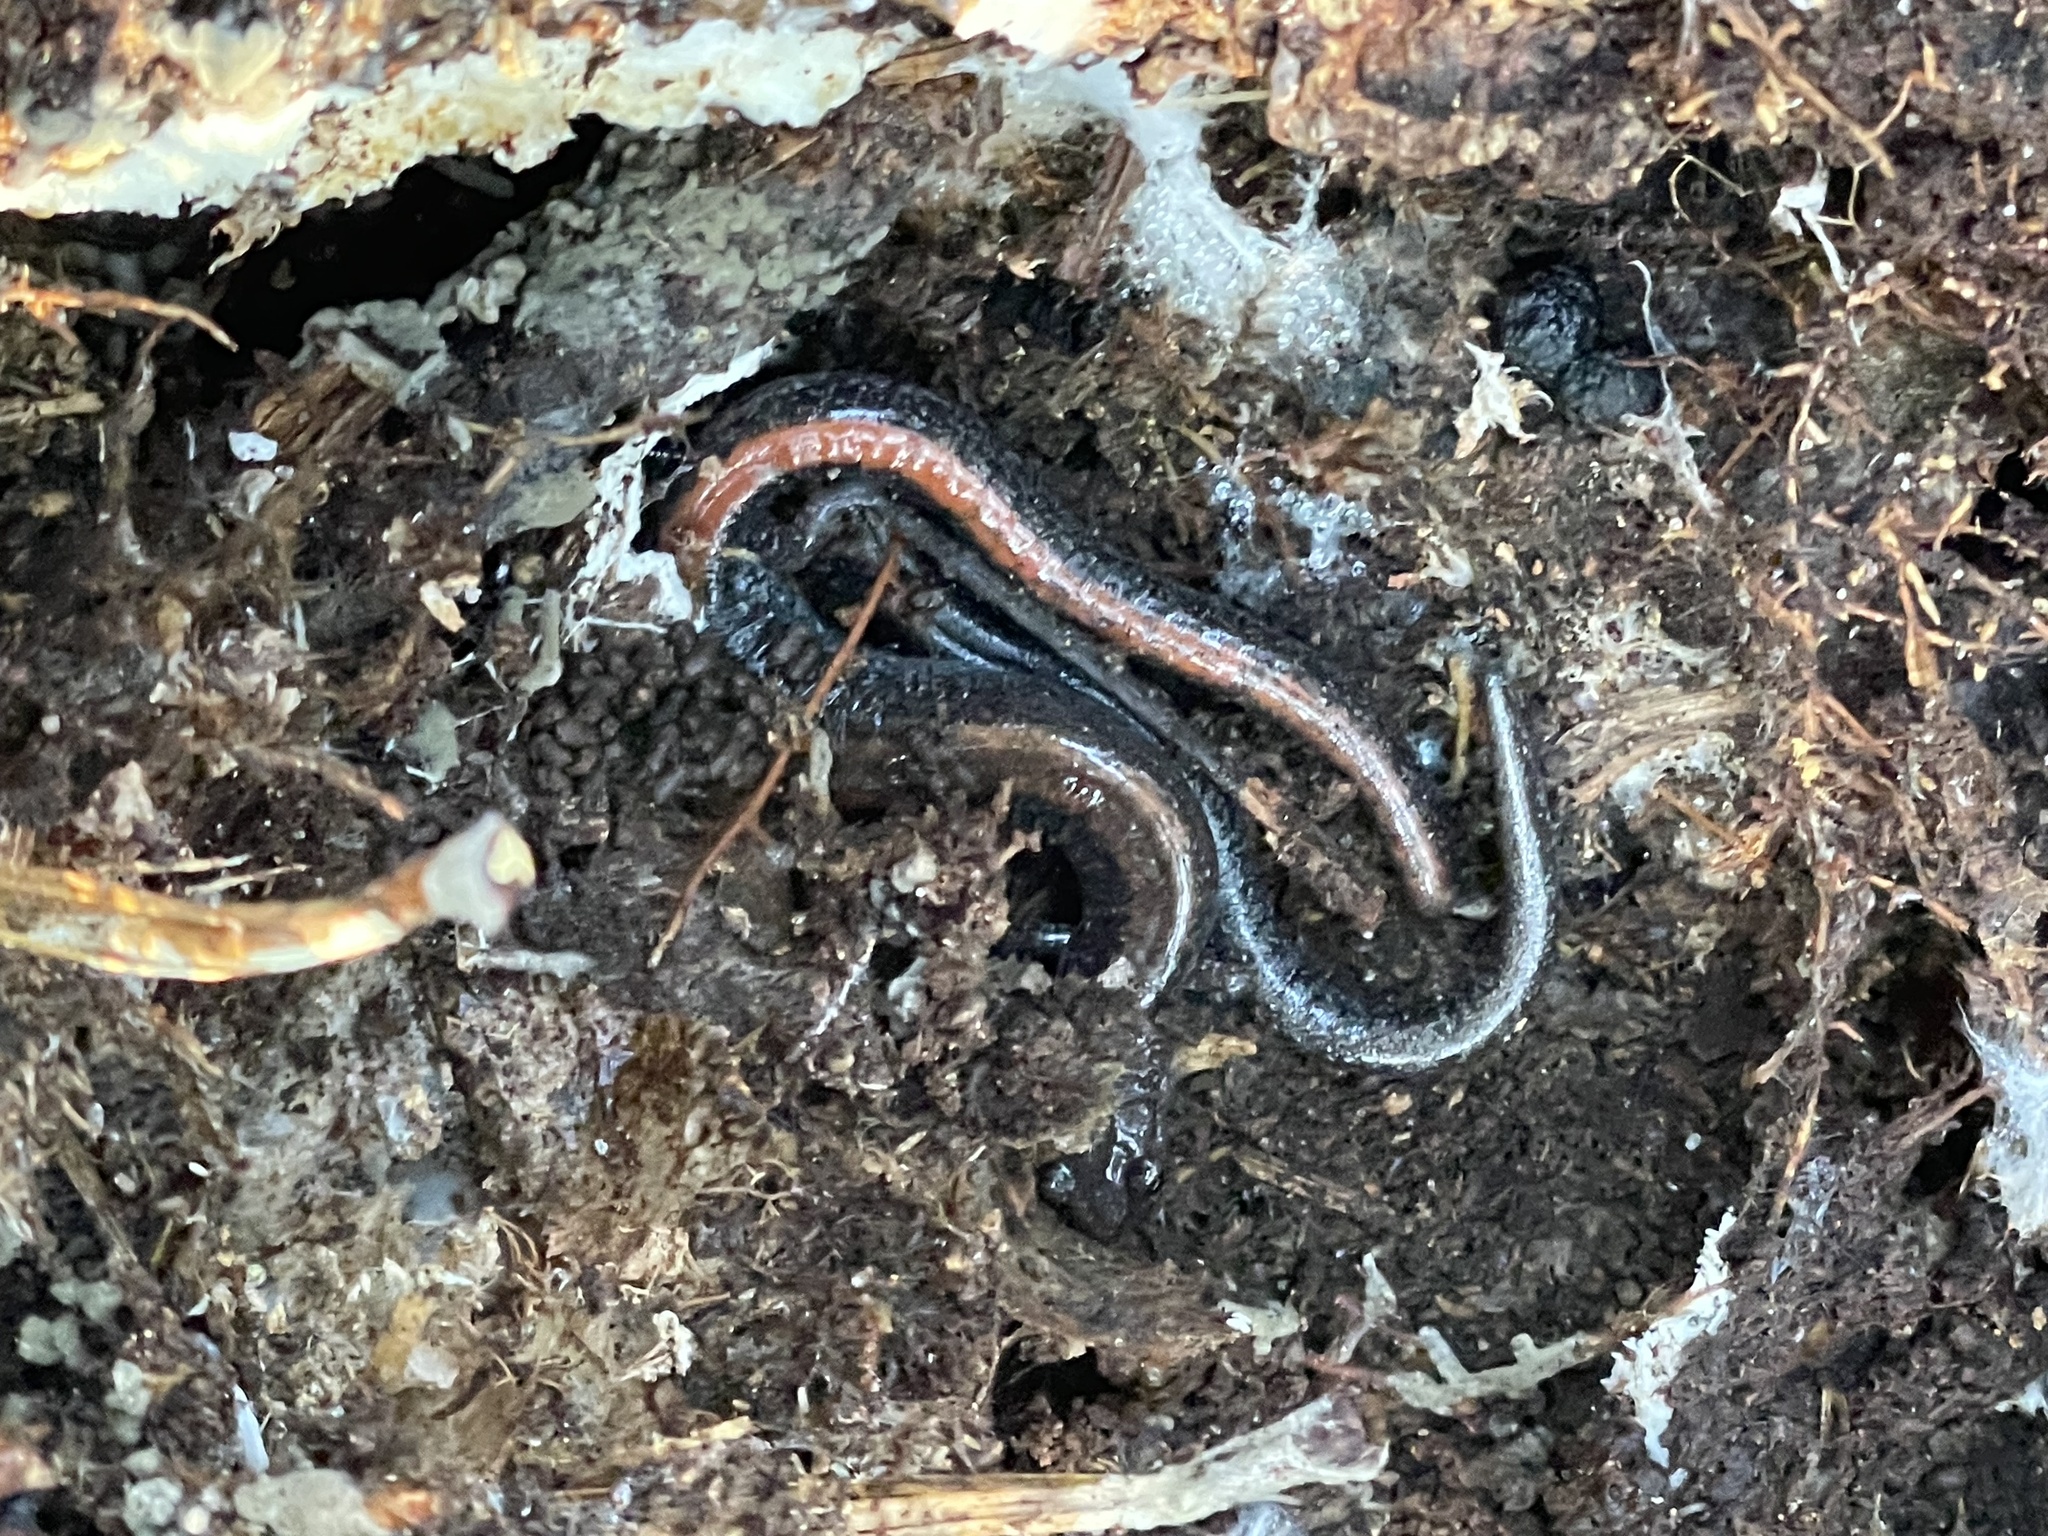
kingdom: Animalia
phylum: Chordata
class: Amphibia
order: Caudata
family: Plethodontidae
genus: Plethodon
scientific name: Plethodon cinereus
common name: Redback salamander
